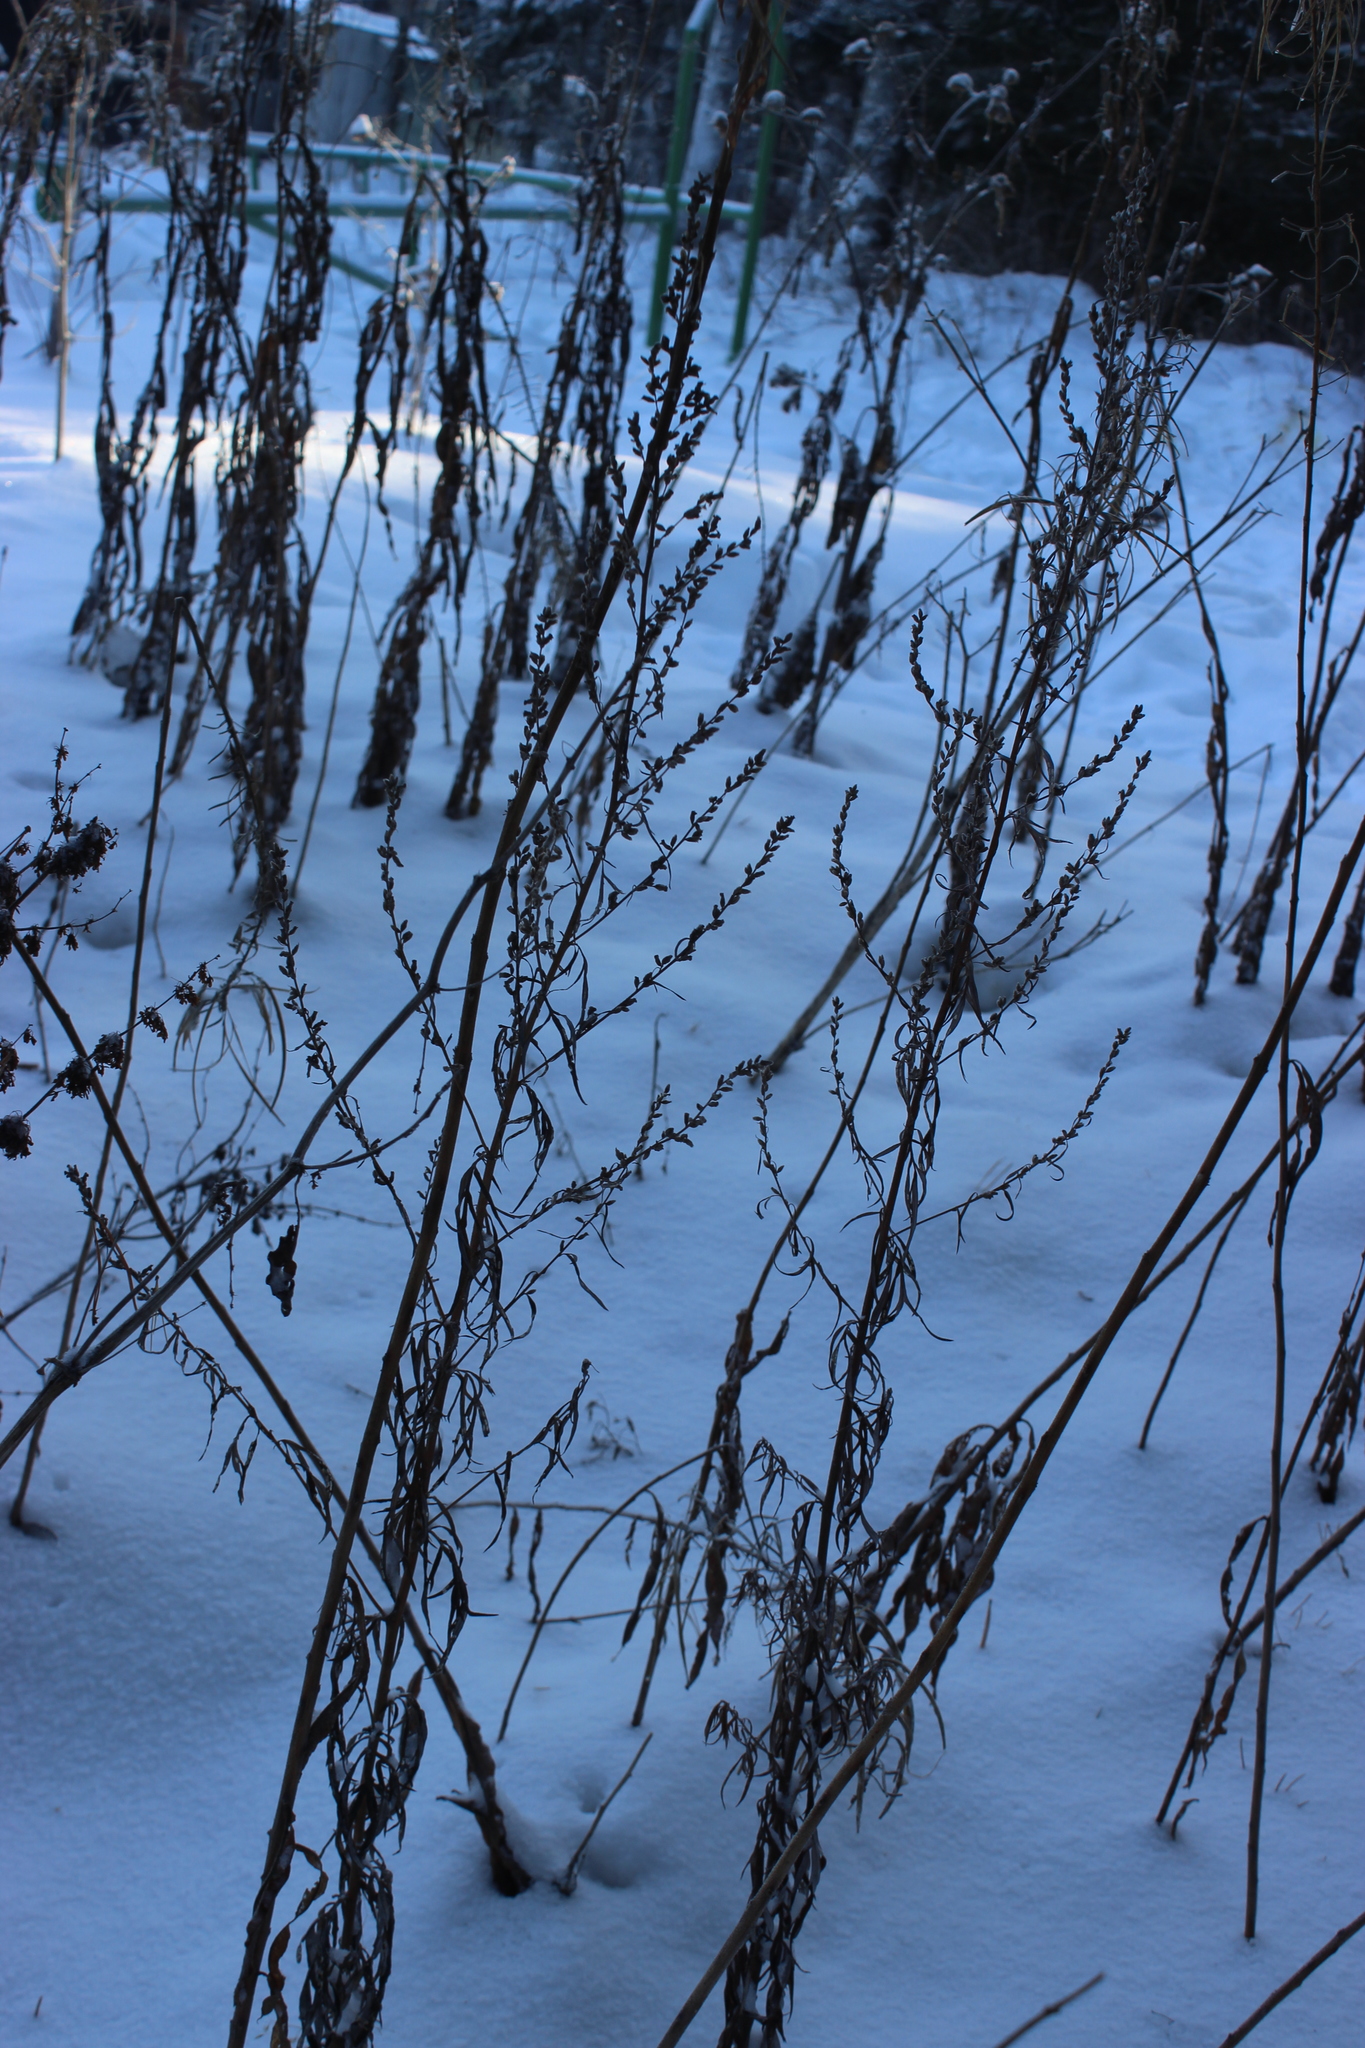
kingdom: Plantae
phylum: Tracheophyta
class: Magnoliopsida
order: Asterales
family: Asteraceae
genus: Artemisia
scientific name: Artemisia vulgaris
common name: Mugwort
